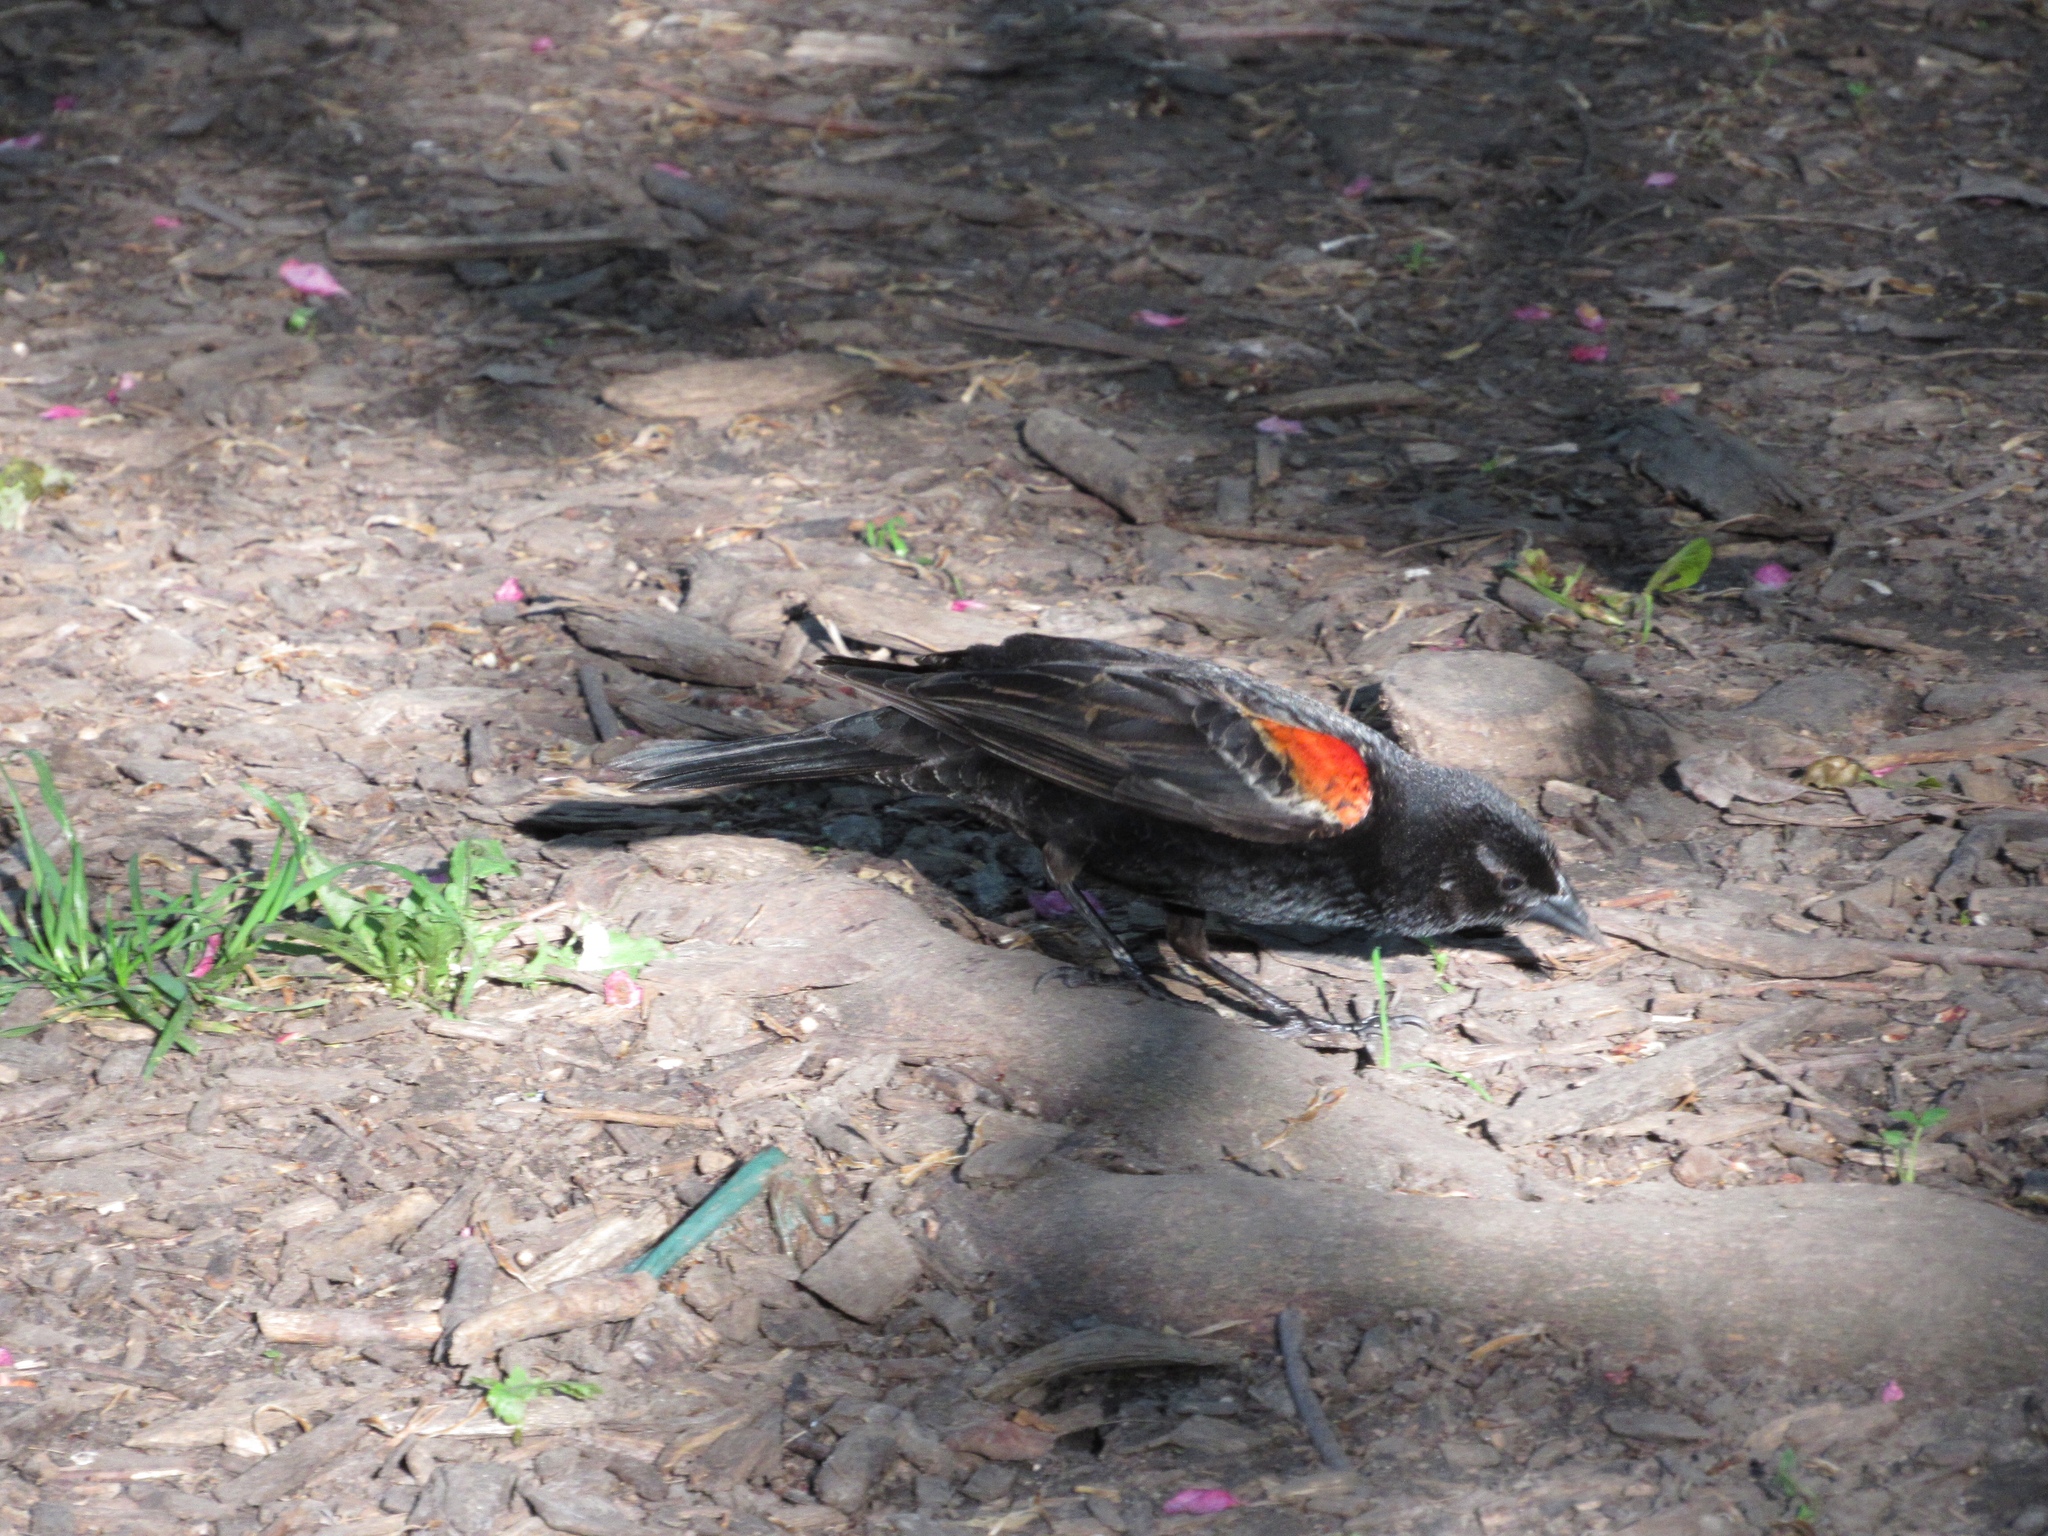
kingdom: Animalia
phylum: Chordata
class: Aves
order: Passeriformes
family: Icteridae
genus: Agelaius
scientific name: Agelaius phoeniceus
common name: Red-winged blackbird
